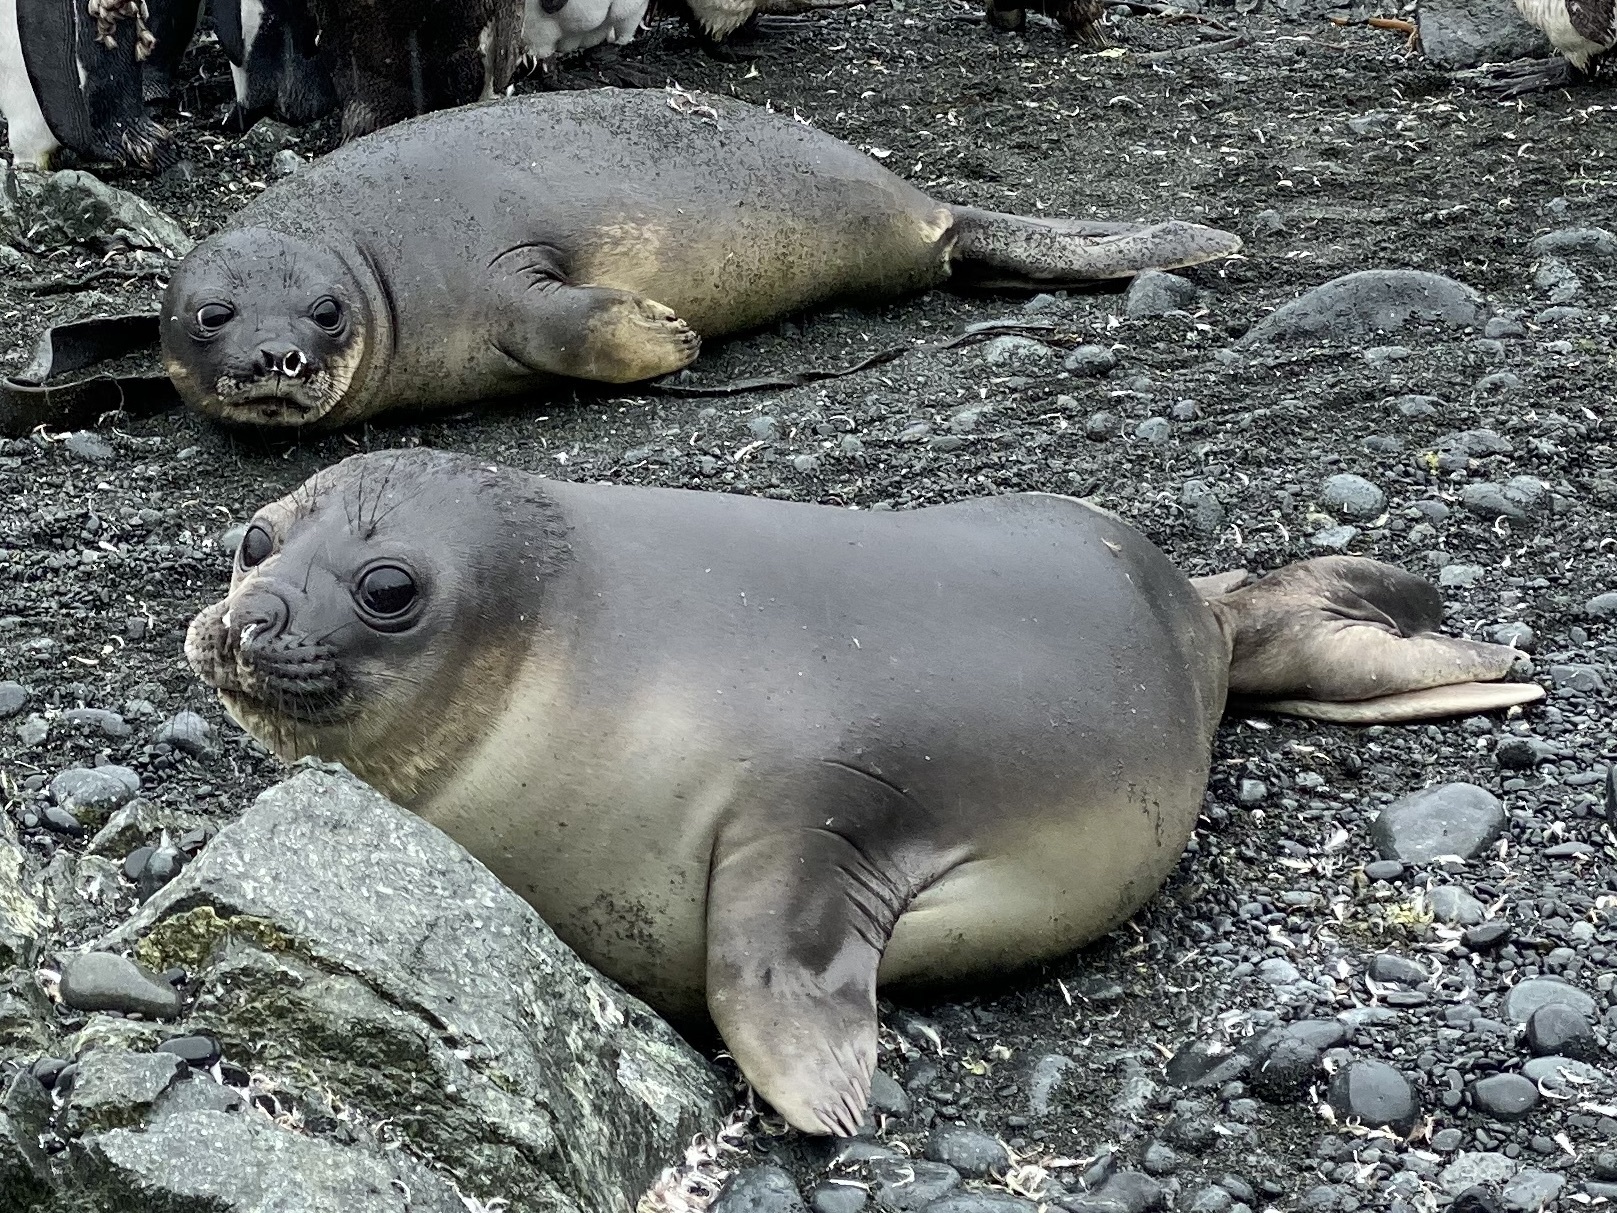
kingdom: Animalia
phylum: Chordata
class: Mammalia
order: Carnivora
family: Phocidae
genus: Mirounga
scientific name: Mirounga leonina
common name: Southern elephant seal
